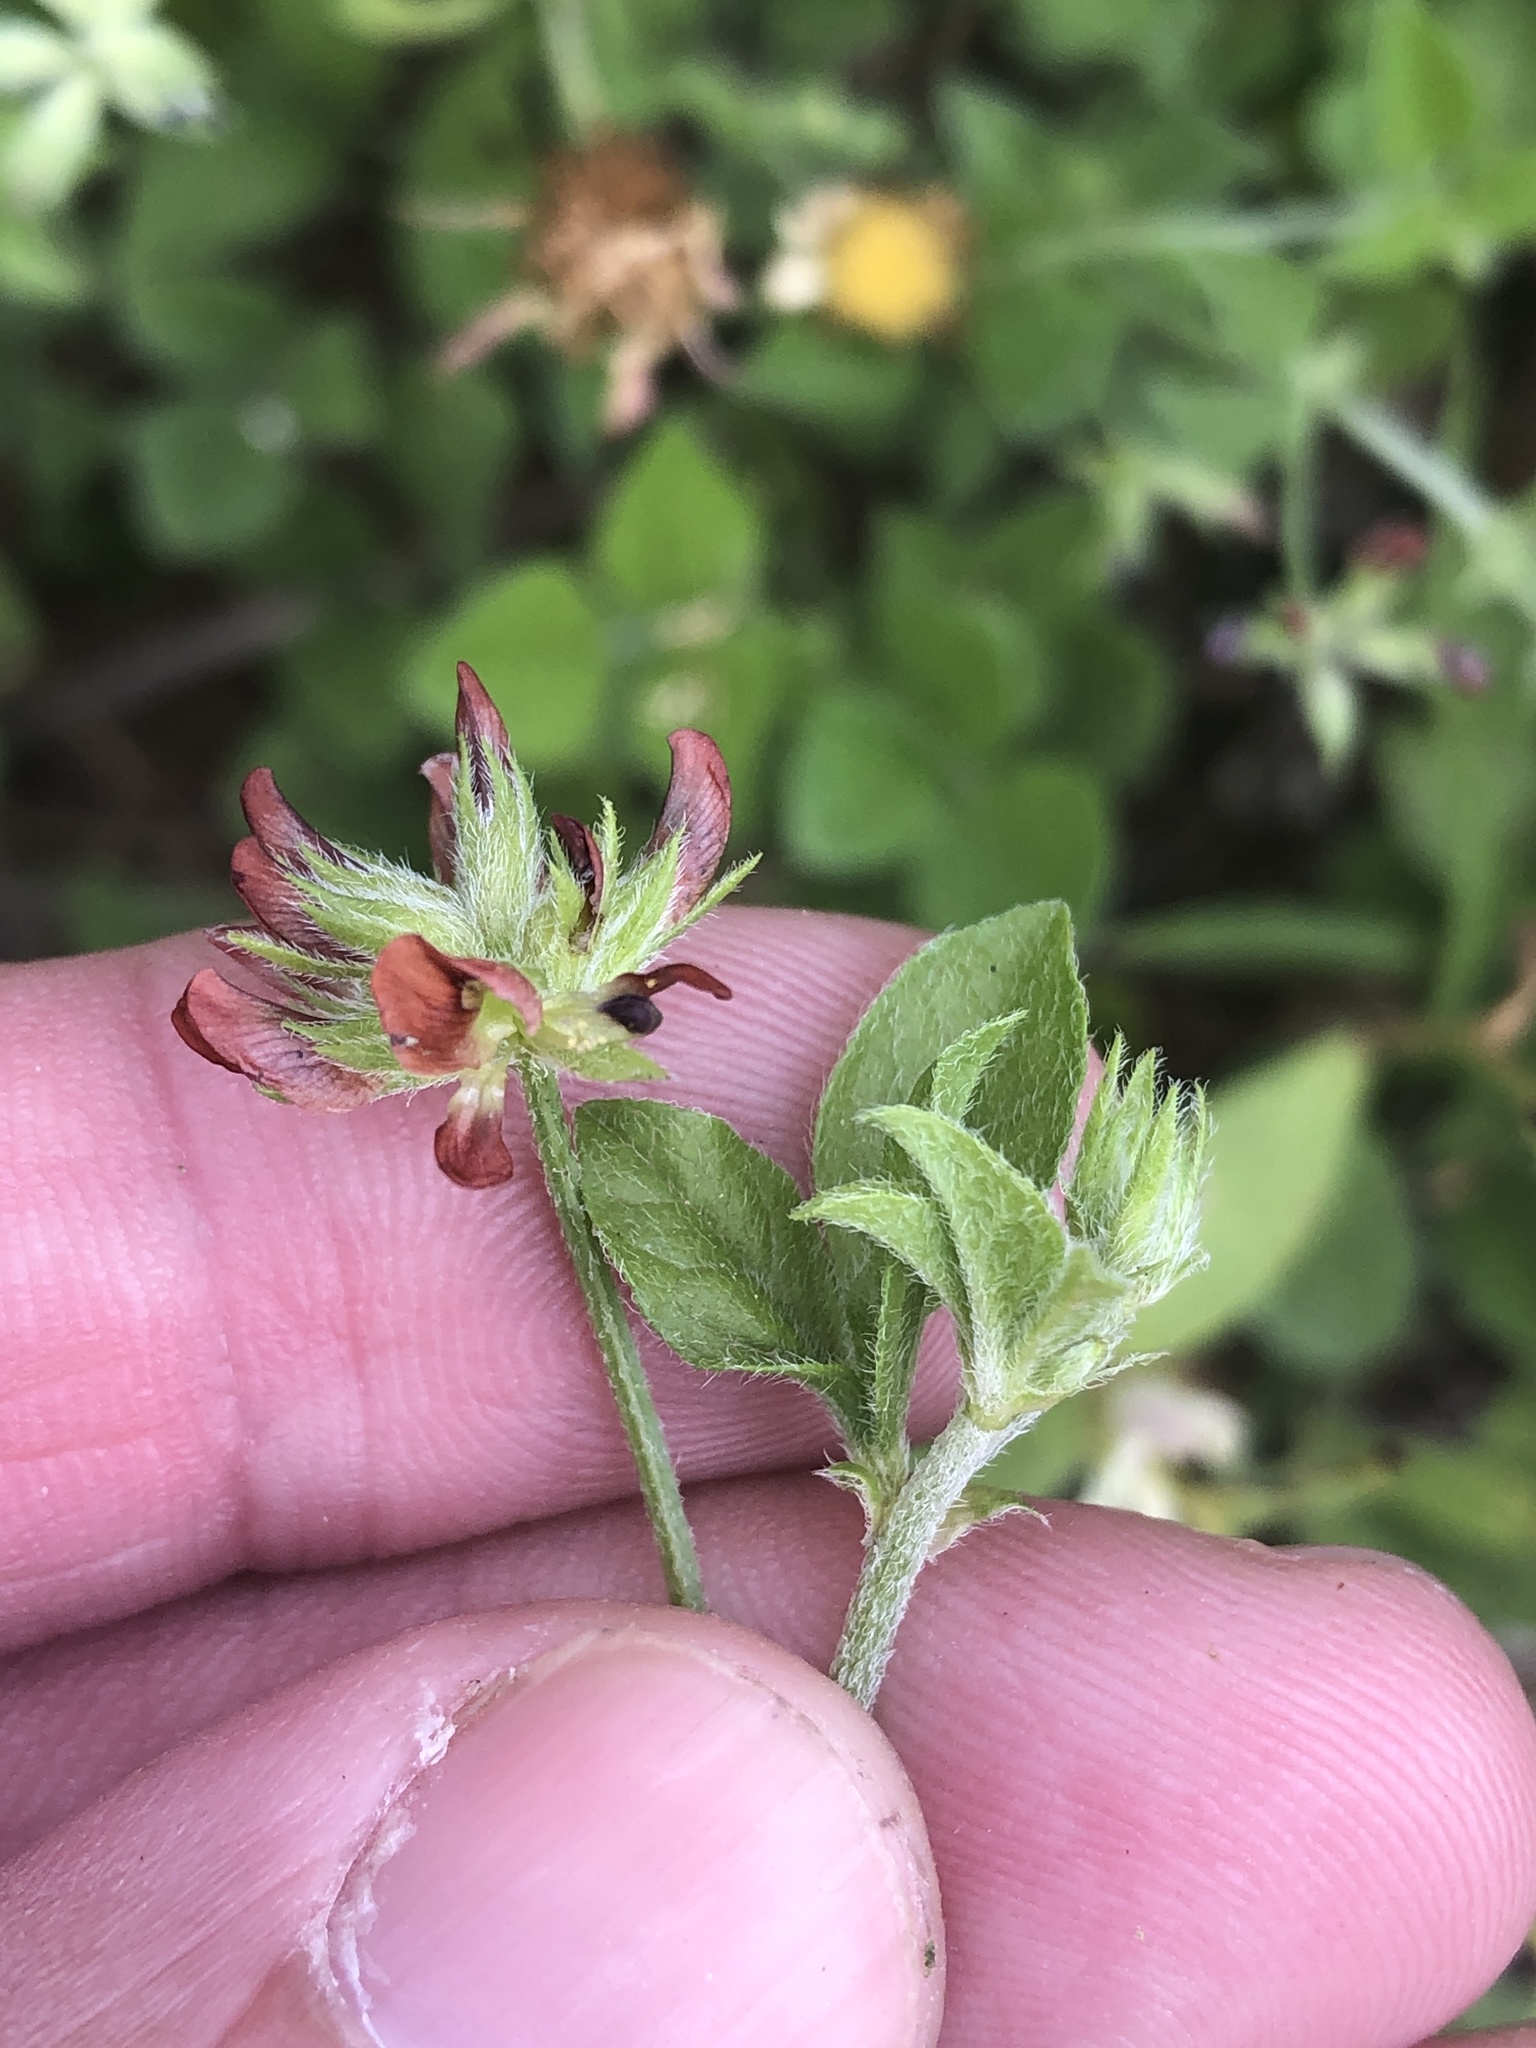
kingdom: Plantae
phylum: Tracheophyta
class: Magnoliopsida
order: Fabales
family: Fabaceae
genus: Pediomelum
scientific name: Pediomelum rhombifolium
